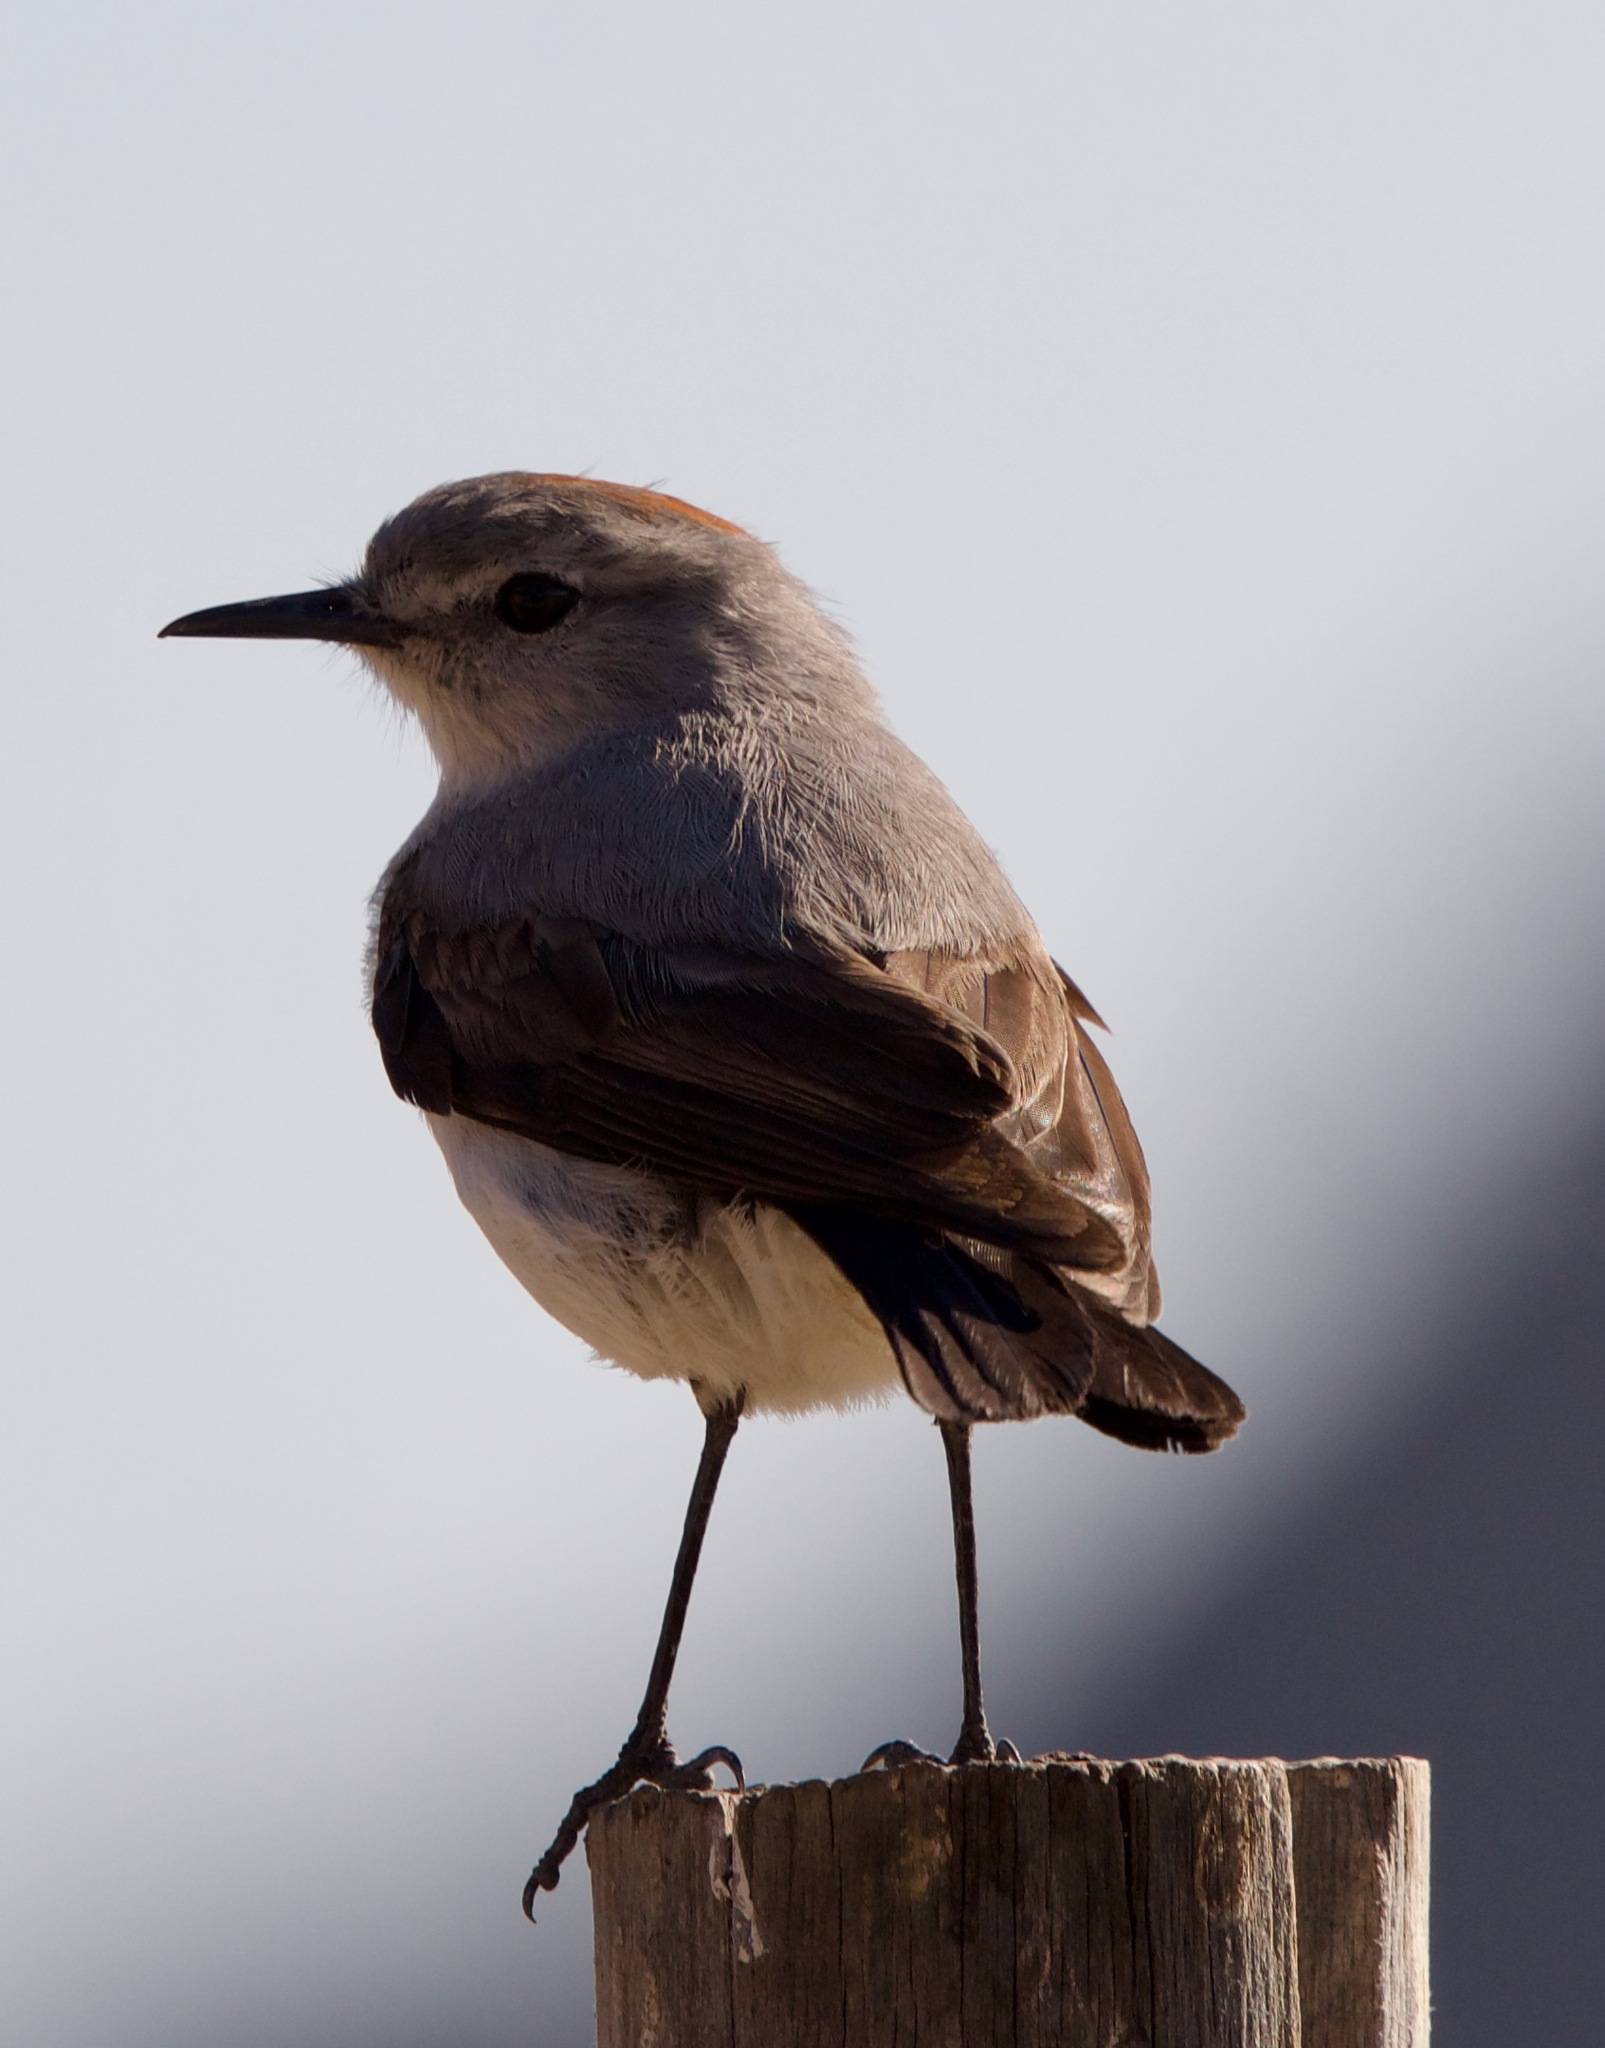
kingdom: Animalia
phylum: Chordata
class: Aves
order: Passeriformes
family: Tyrannidae
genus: Muscisaxicola
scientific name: Muscisaxicola rufivertex
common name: Rufous-naped ground tyrant
